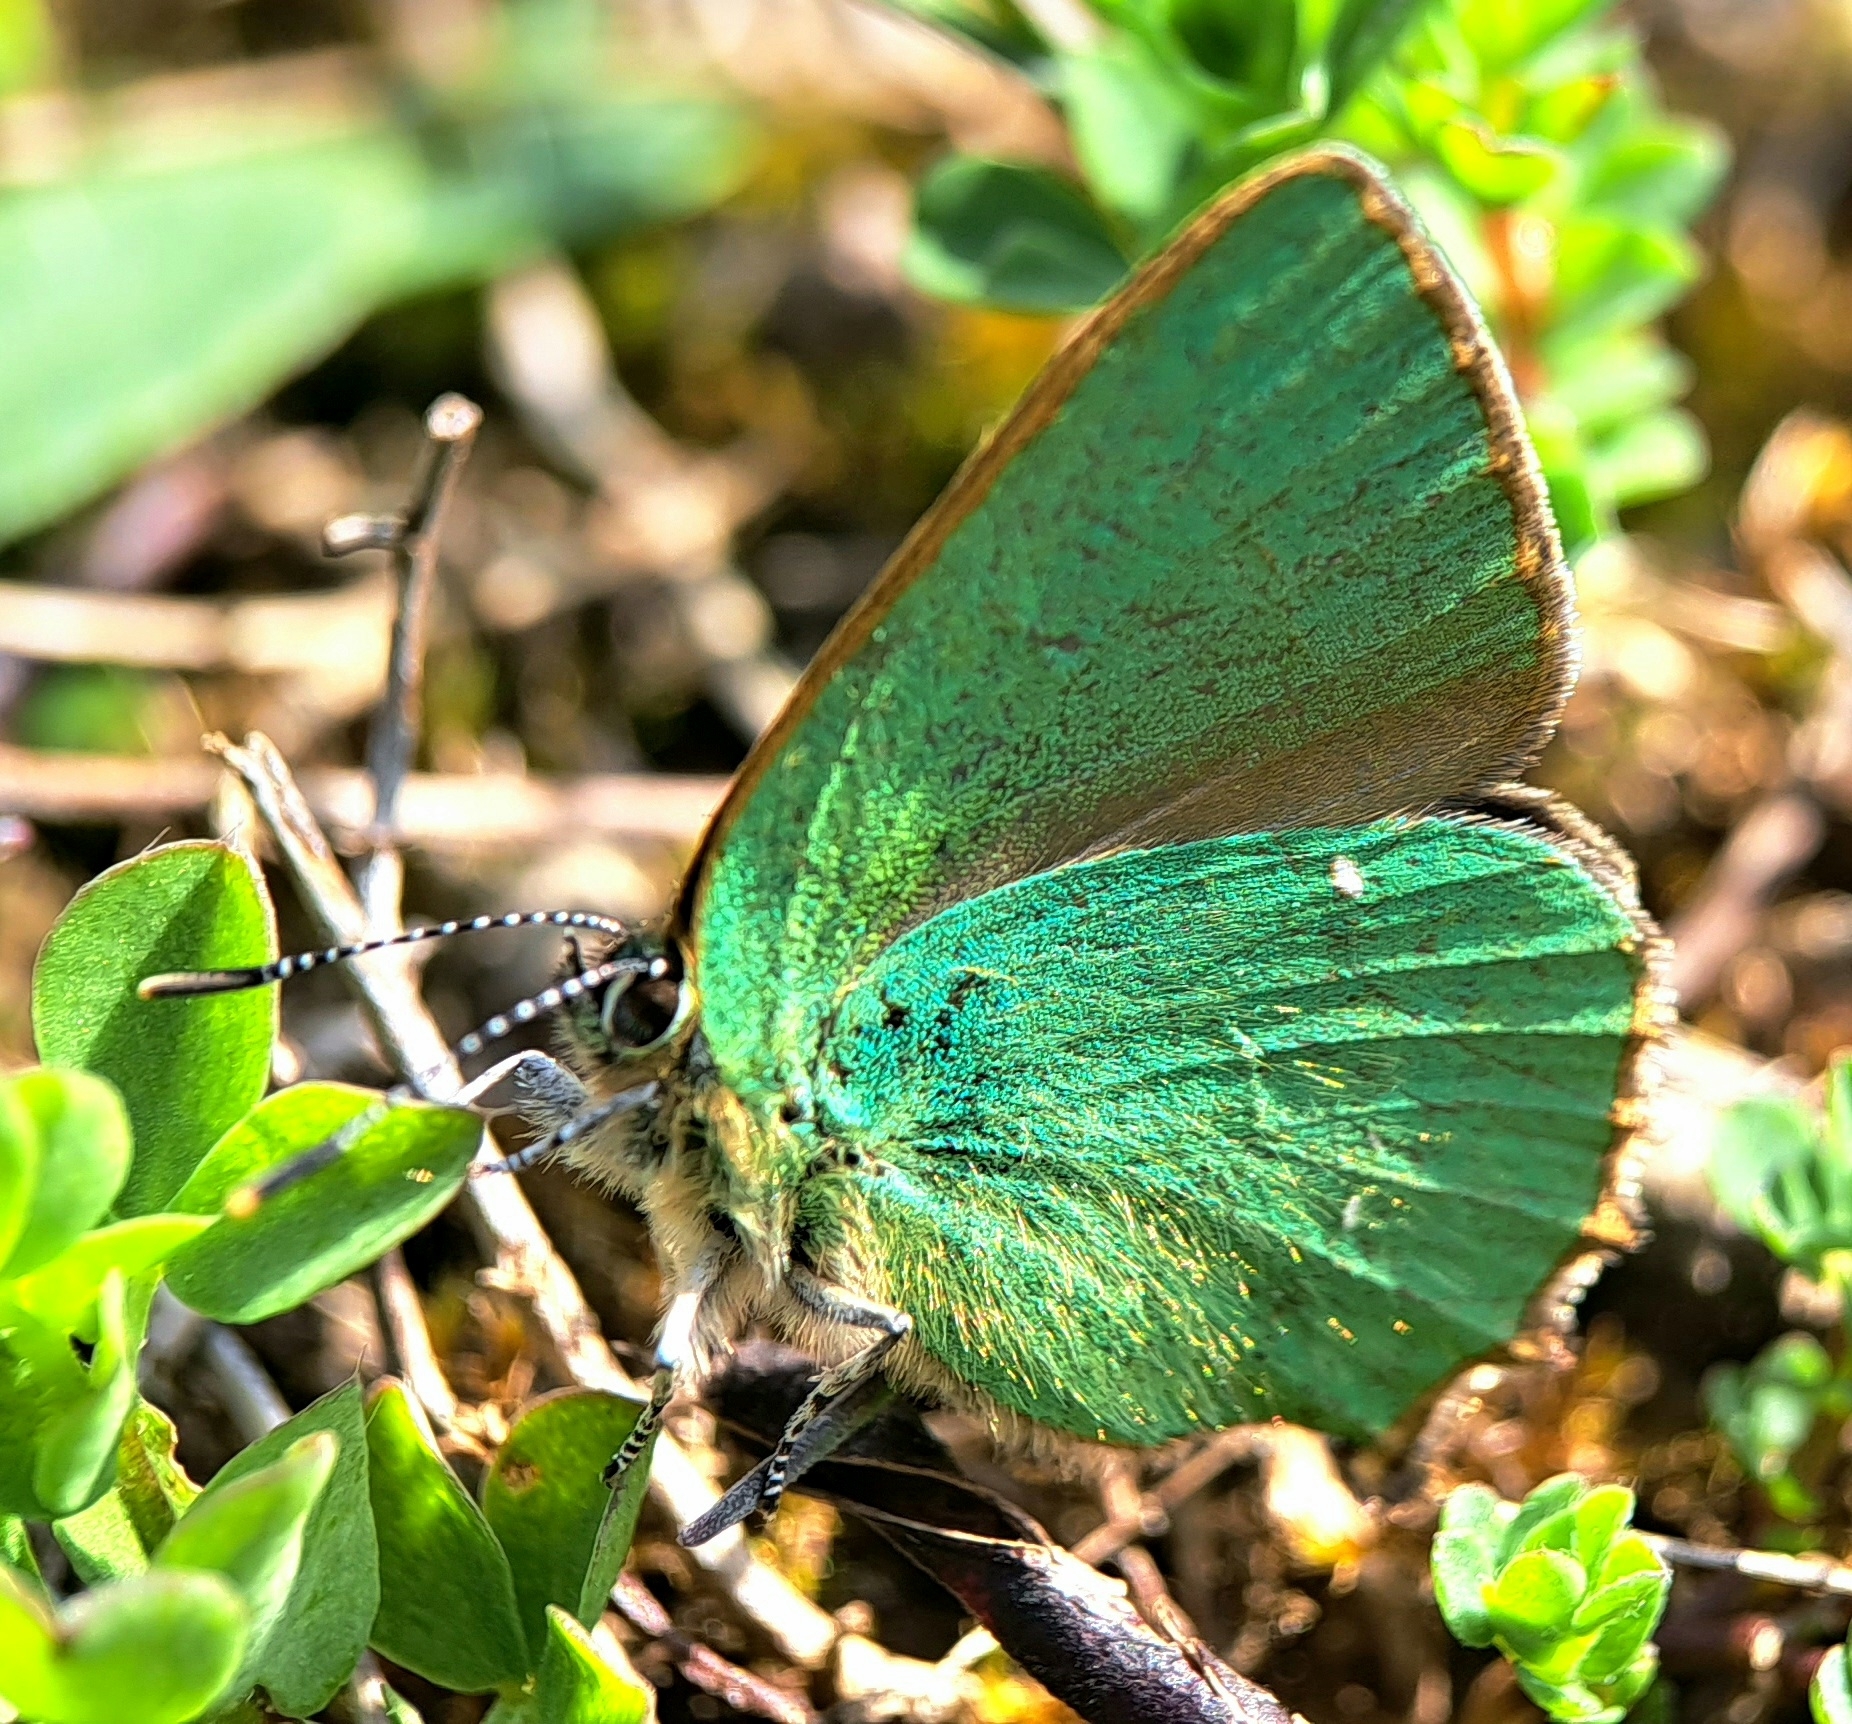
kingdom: Animalia
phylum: Arthropoda
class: Insecta
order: Lepidoptera
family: Lycaenidae
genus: Callophrys
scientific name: Callophrys rubi
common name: Green hairstreak
